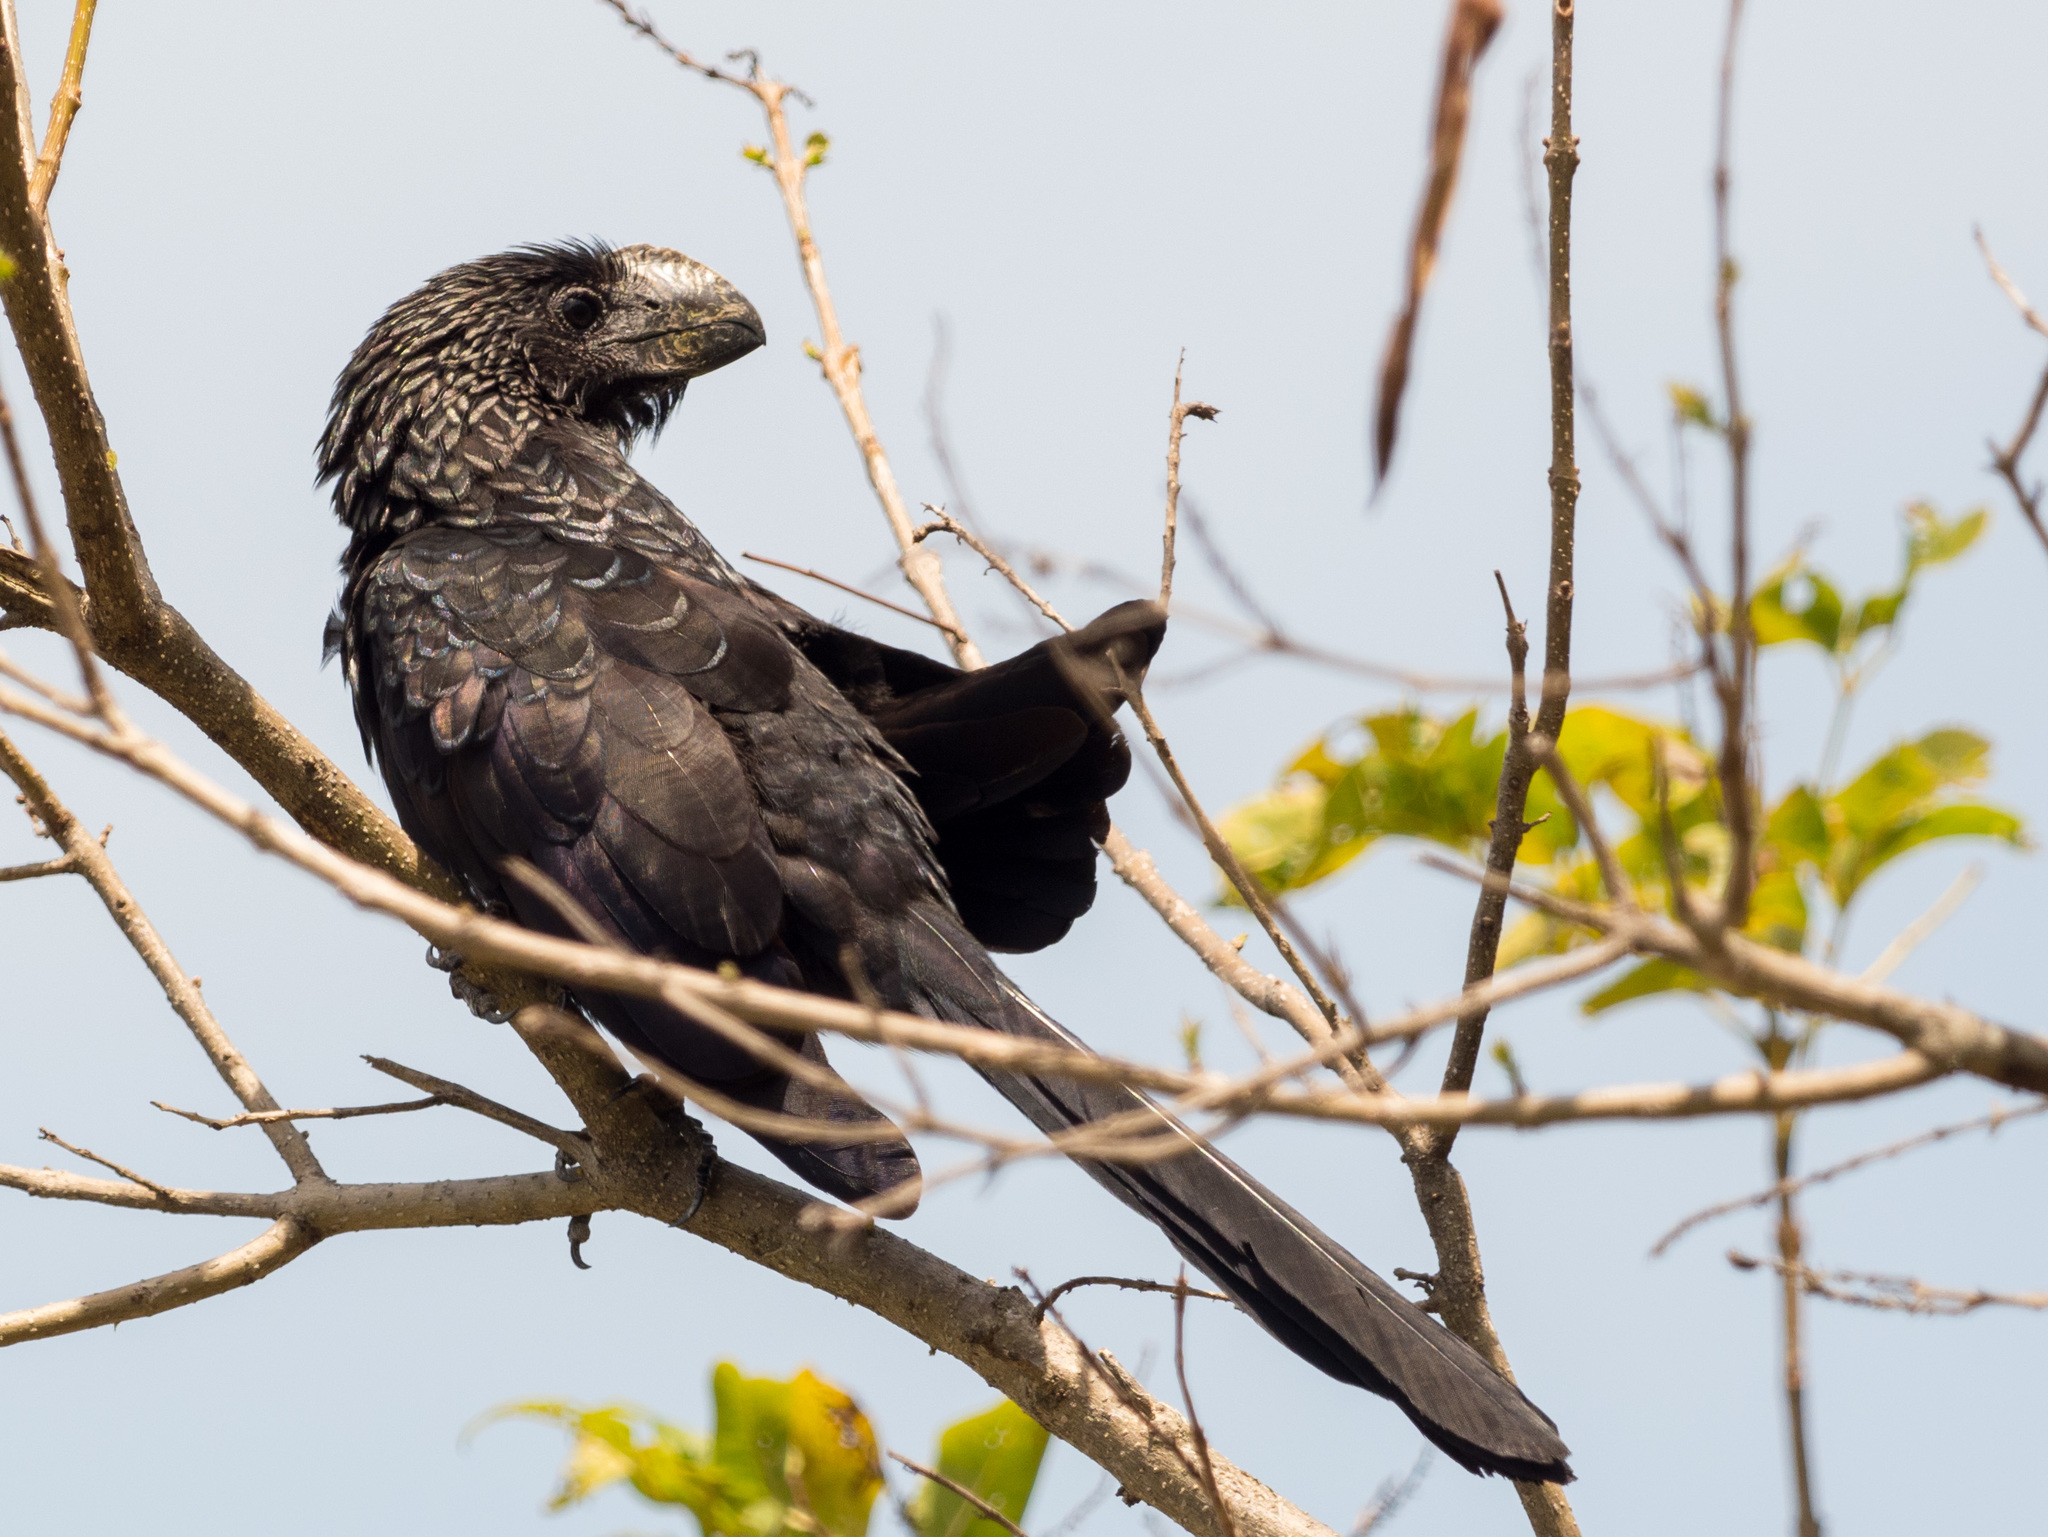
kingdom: Animalia
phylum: Chordata
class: Aves
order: Cuculiformes
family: Cuculidae
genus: Crotophaga
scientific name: Crotophaga ani
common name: Smooth-billed ani
